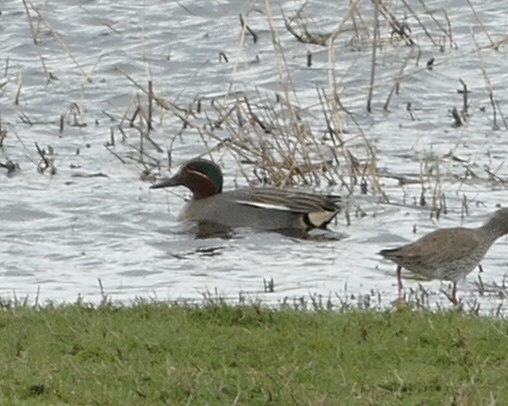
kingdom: Animalia
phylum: Chordata
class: Aves
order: Anseriformes
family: Anatidae
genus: Anas
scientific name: Anas crecca
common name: Eurasian teal
